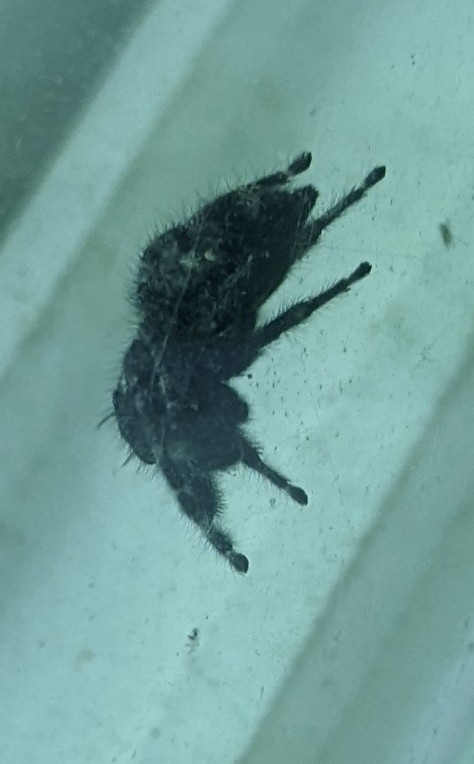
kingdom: Animalia
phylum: Arthropoda
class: Arachnida
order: Araneae
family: Salticidae
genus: Phidippus
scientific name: Phidippus audax
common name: Bold jumper
